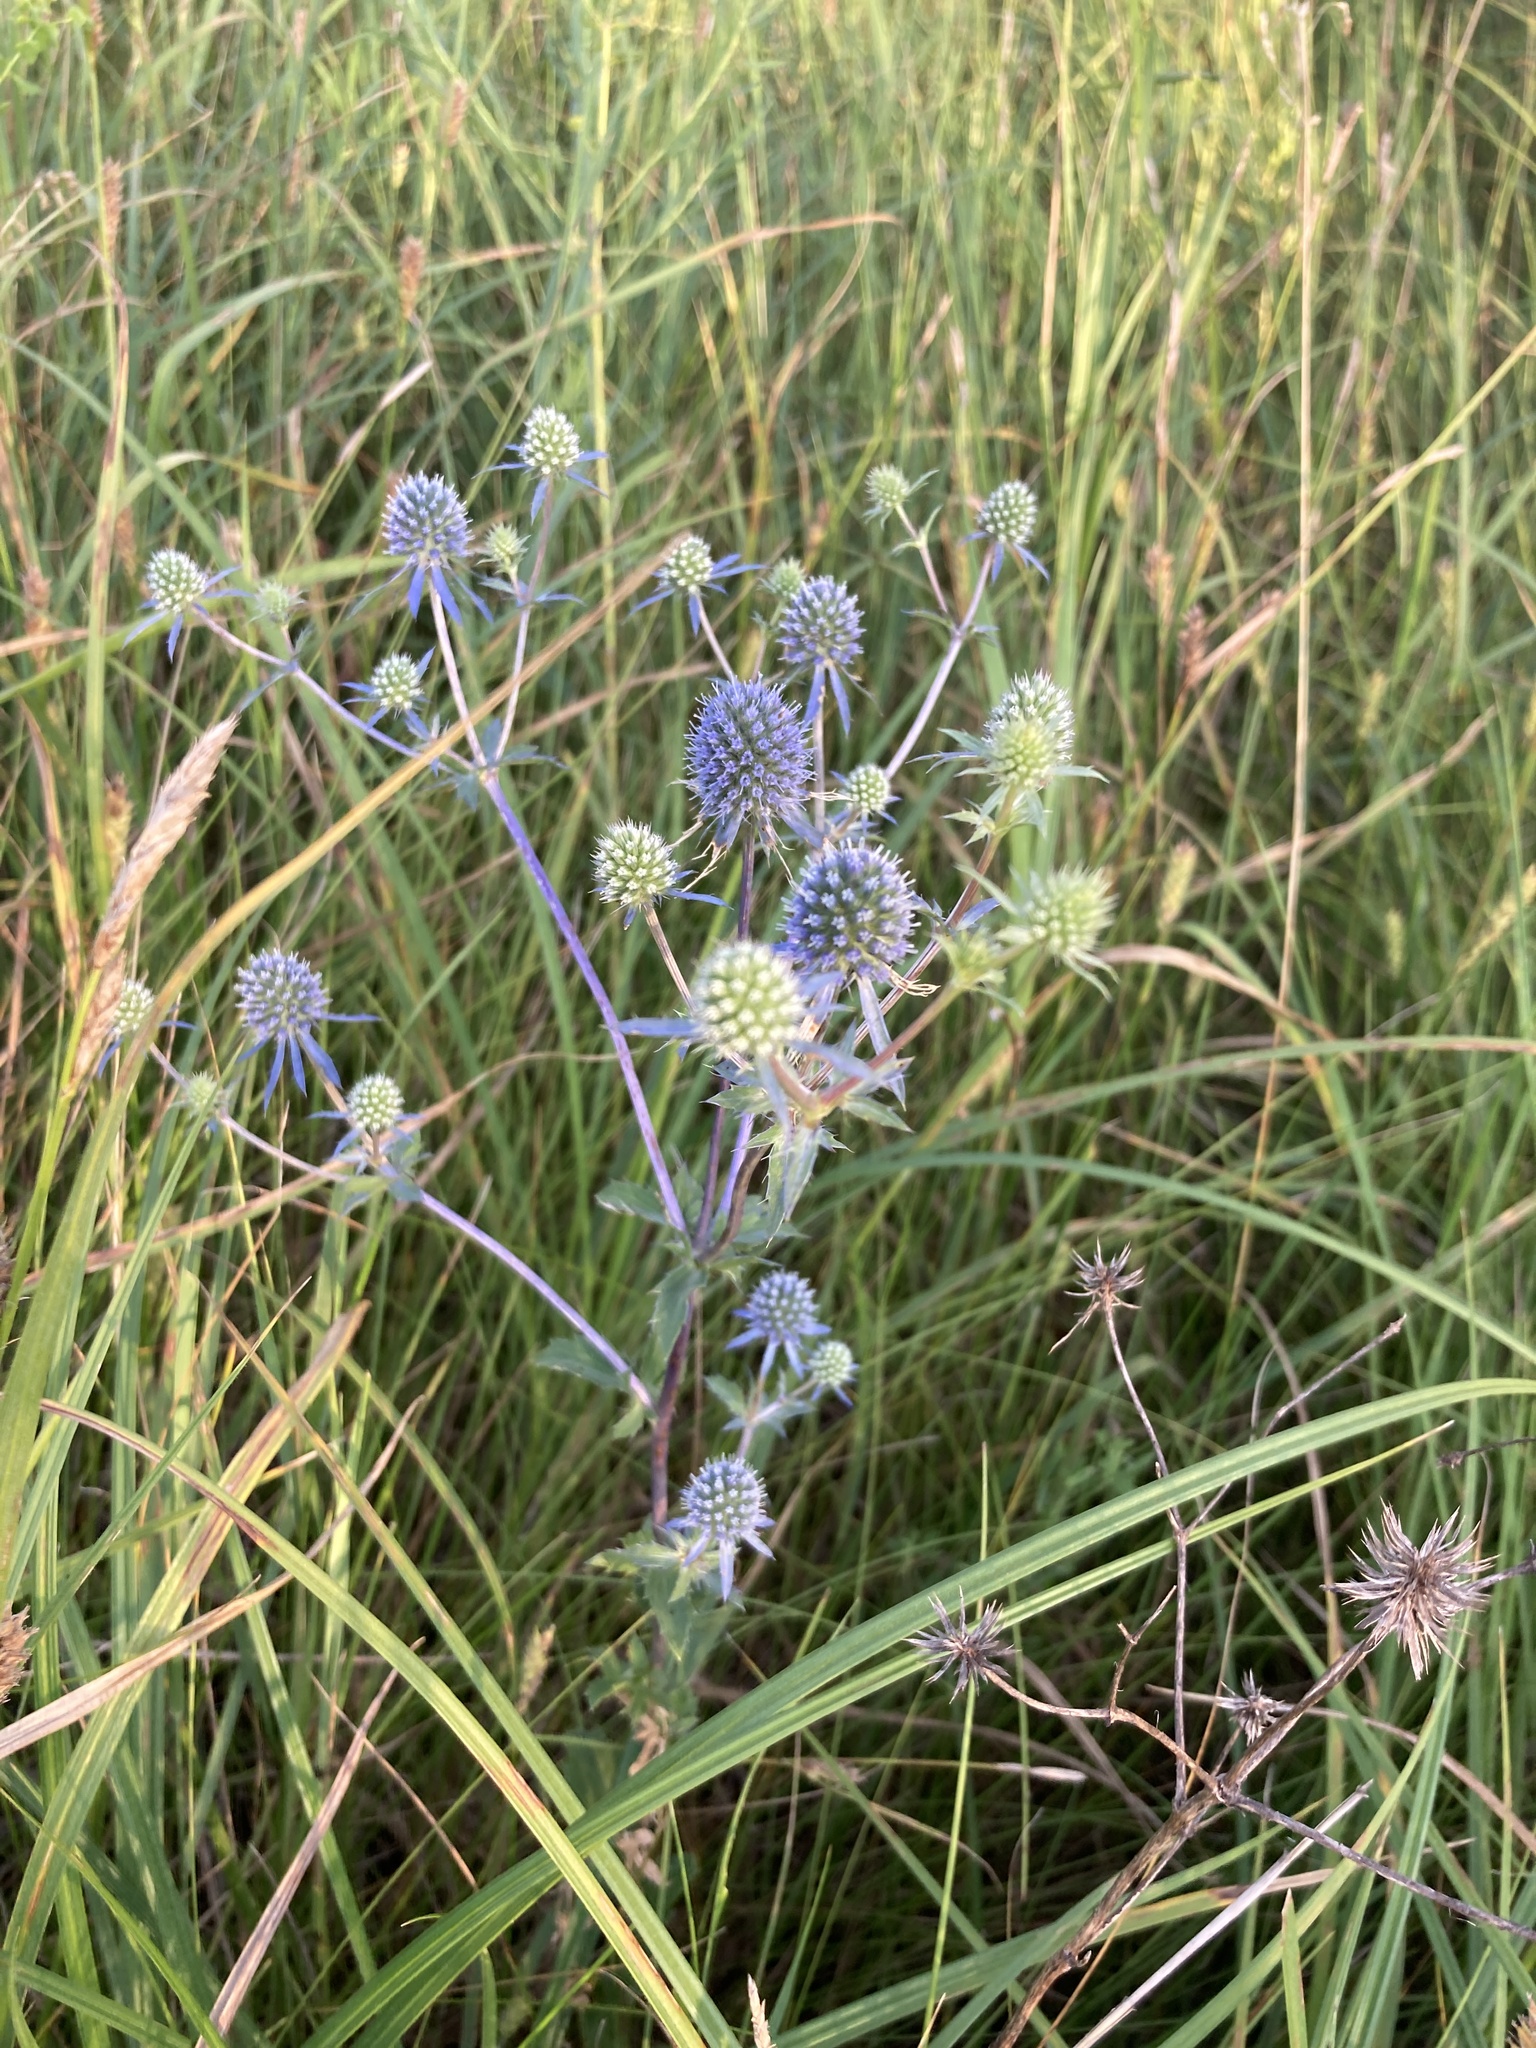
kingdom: Plantae
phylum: Tracheophyta
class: Magnoliopsida
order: Apiales
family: Apiaceae
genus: Eryngium
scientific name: Eryngium planum
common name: Blue eryngo
